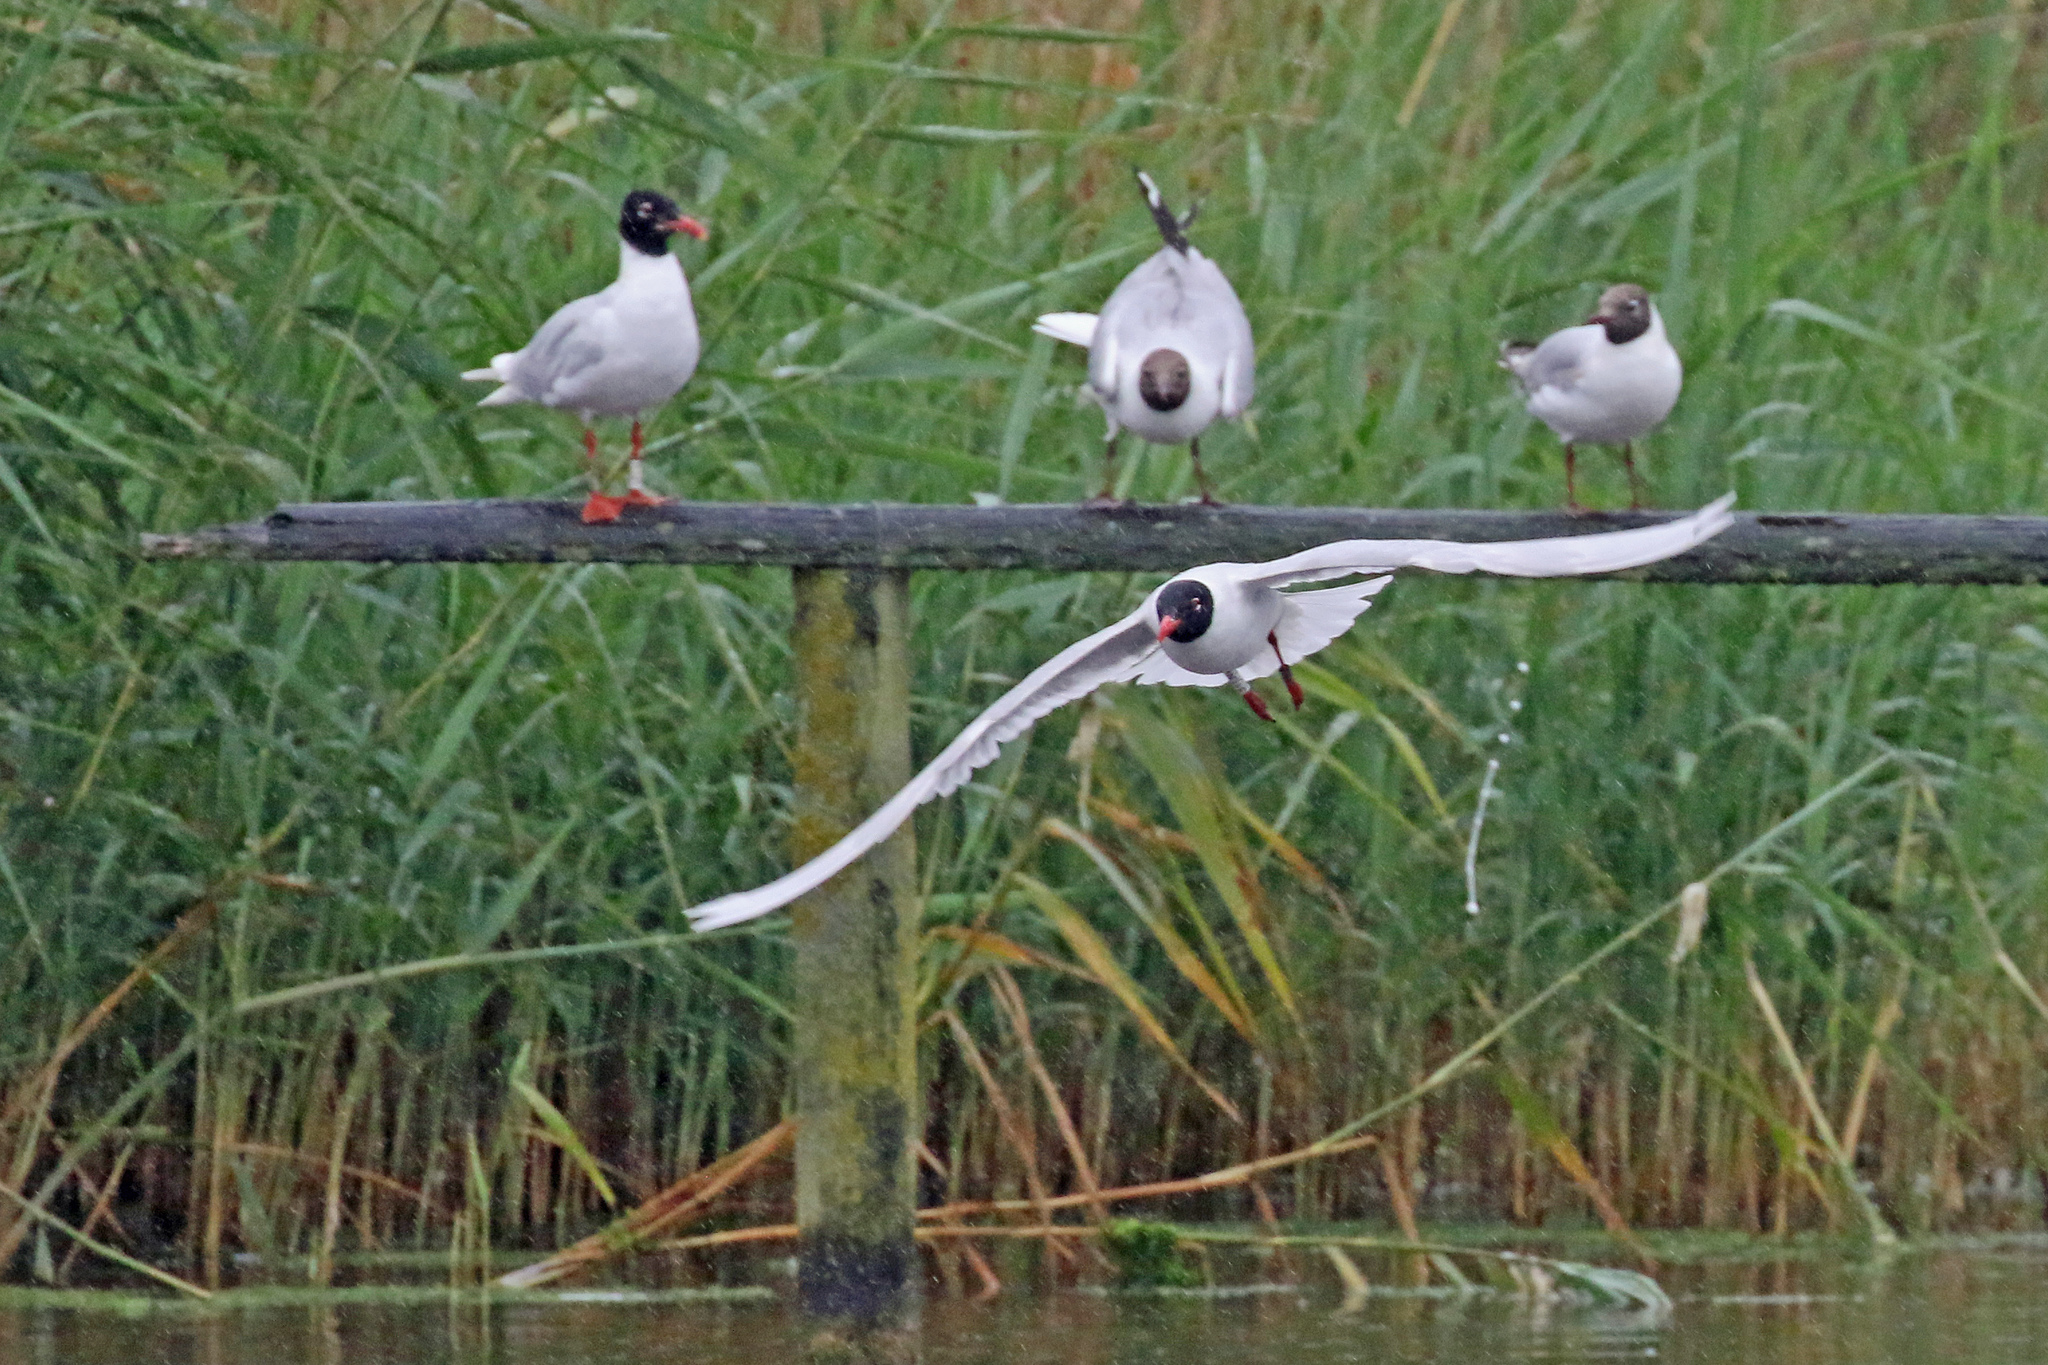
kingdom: Animalia
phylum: Chordata
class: Aves
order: Charadriiformes
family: Laridae
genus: Ichthyaetus
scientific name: Ichthyaetus melanocephalus
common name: Mediterranean gull
